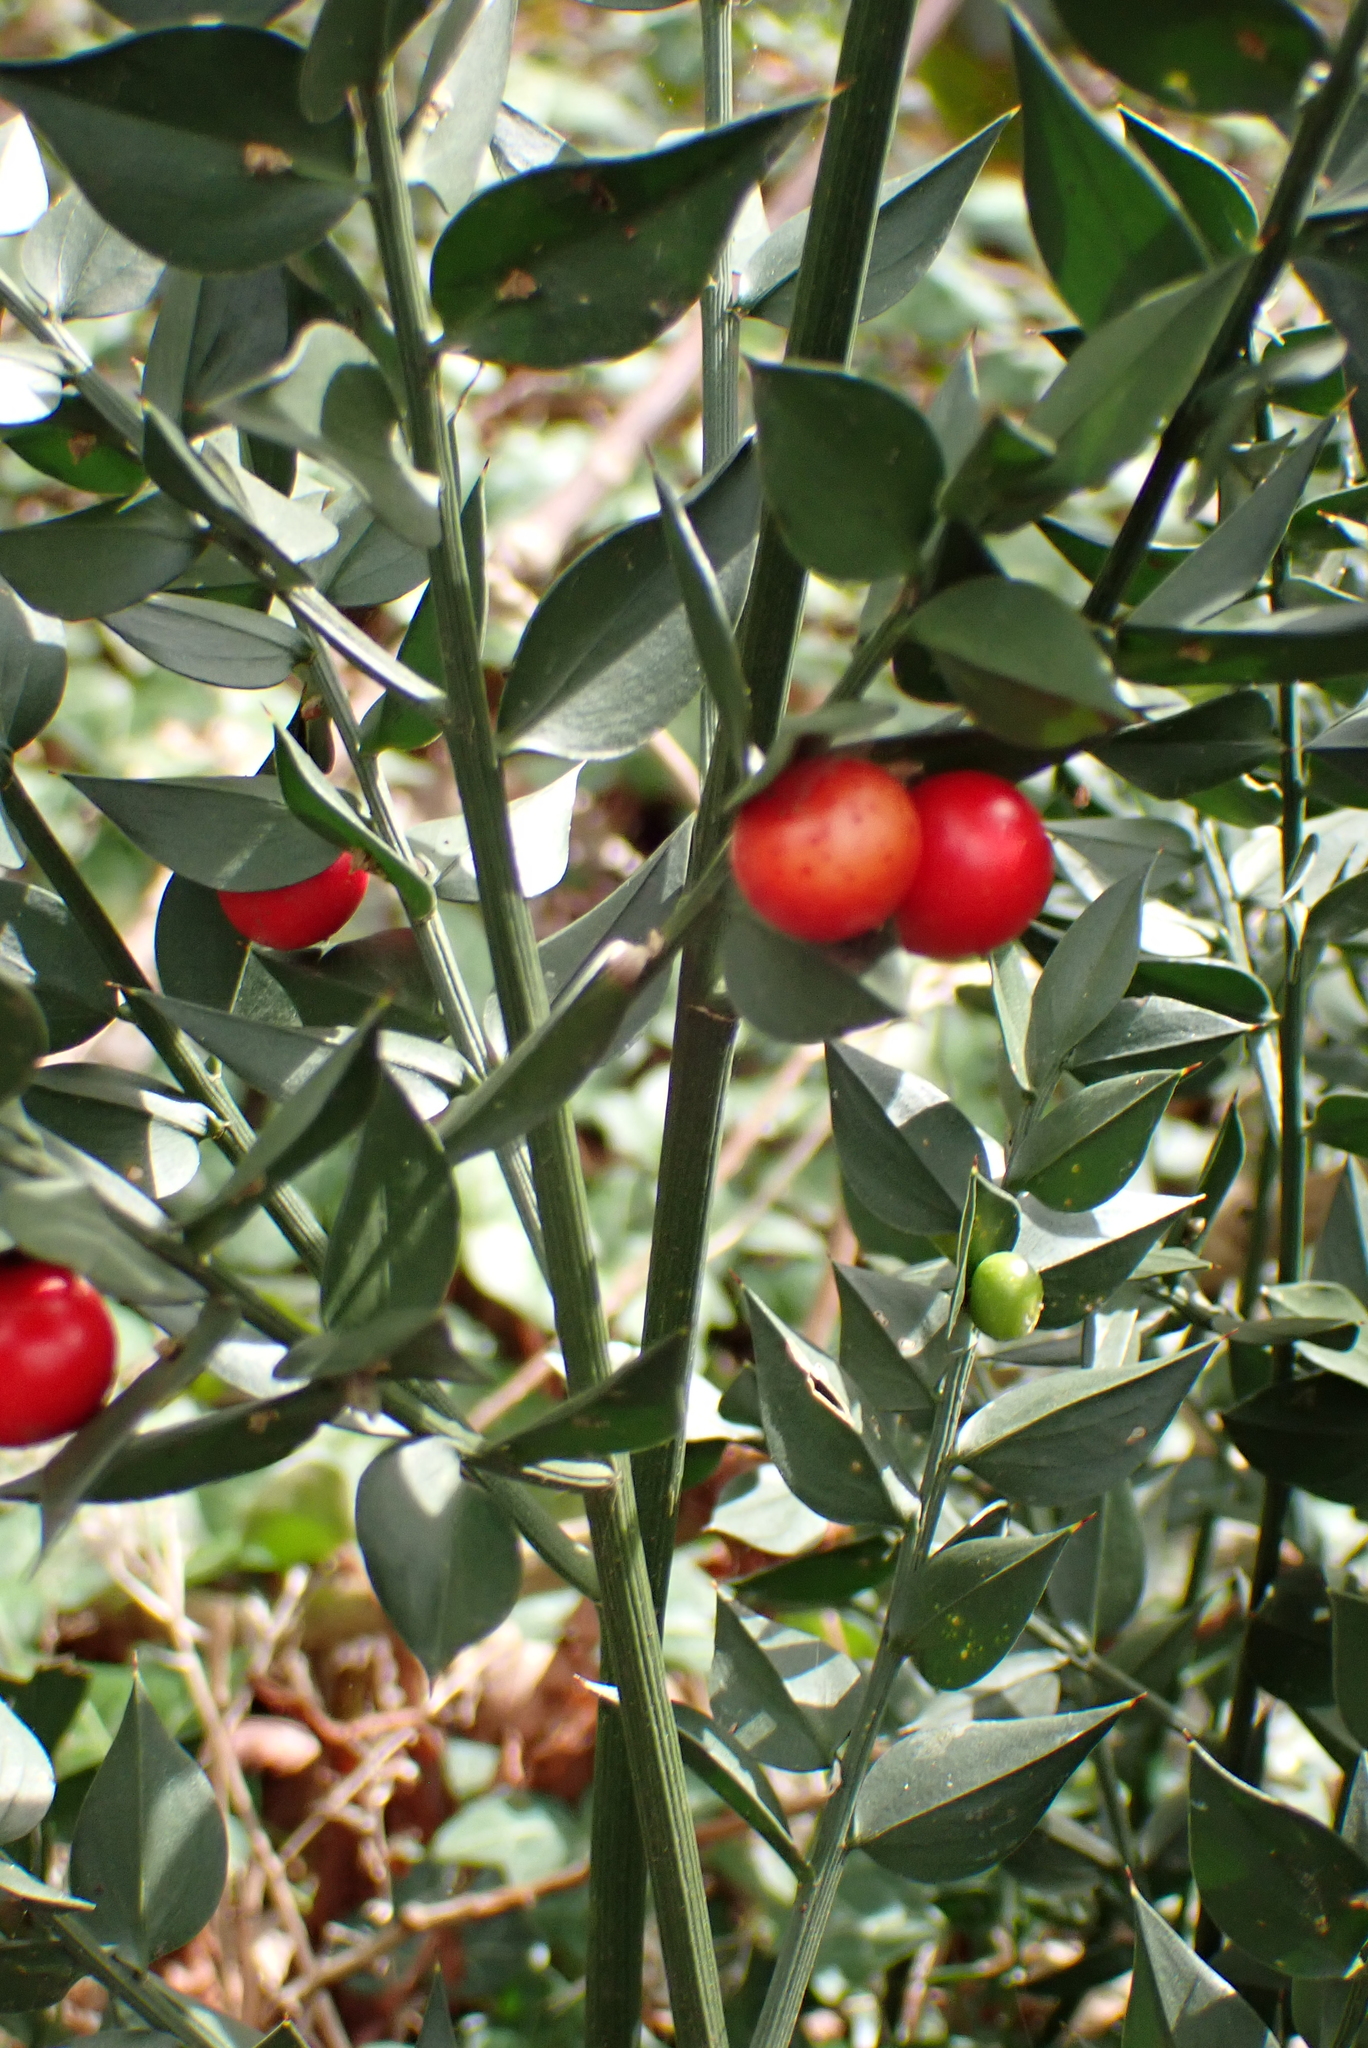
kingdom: Plantae
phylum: Tracheophyta
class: Liliopsida
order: Asparagales
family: Asparagaceae
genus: Ruscus
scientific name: Ruscus aculeatus
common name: Butcher's-broom
